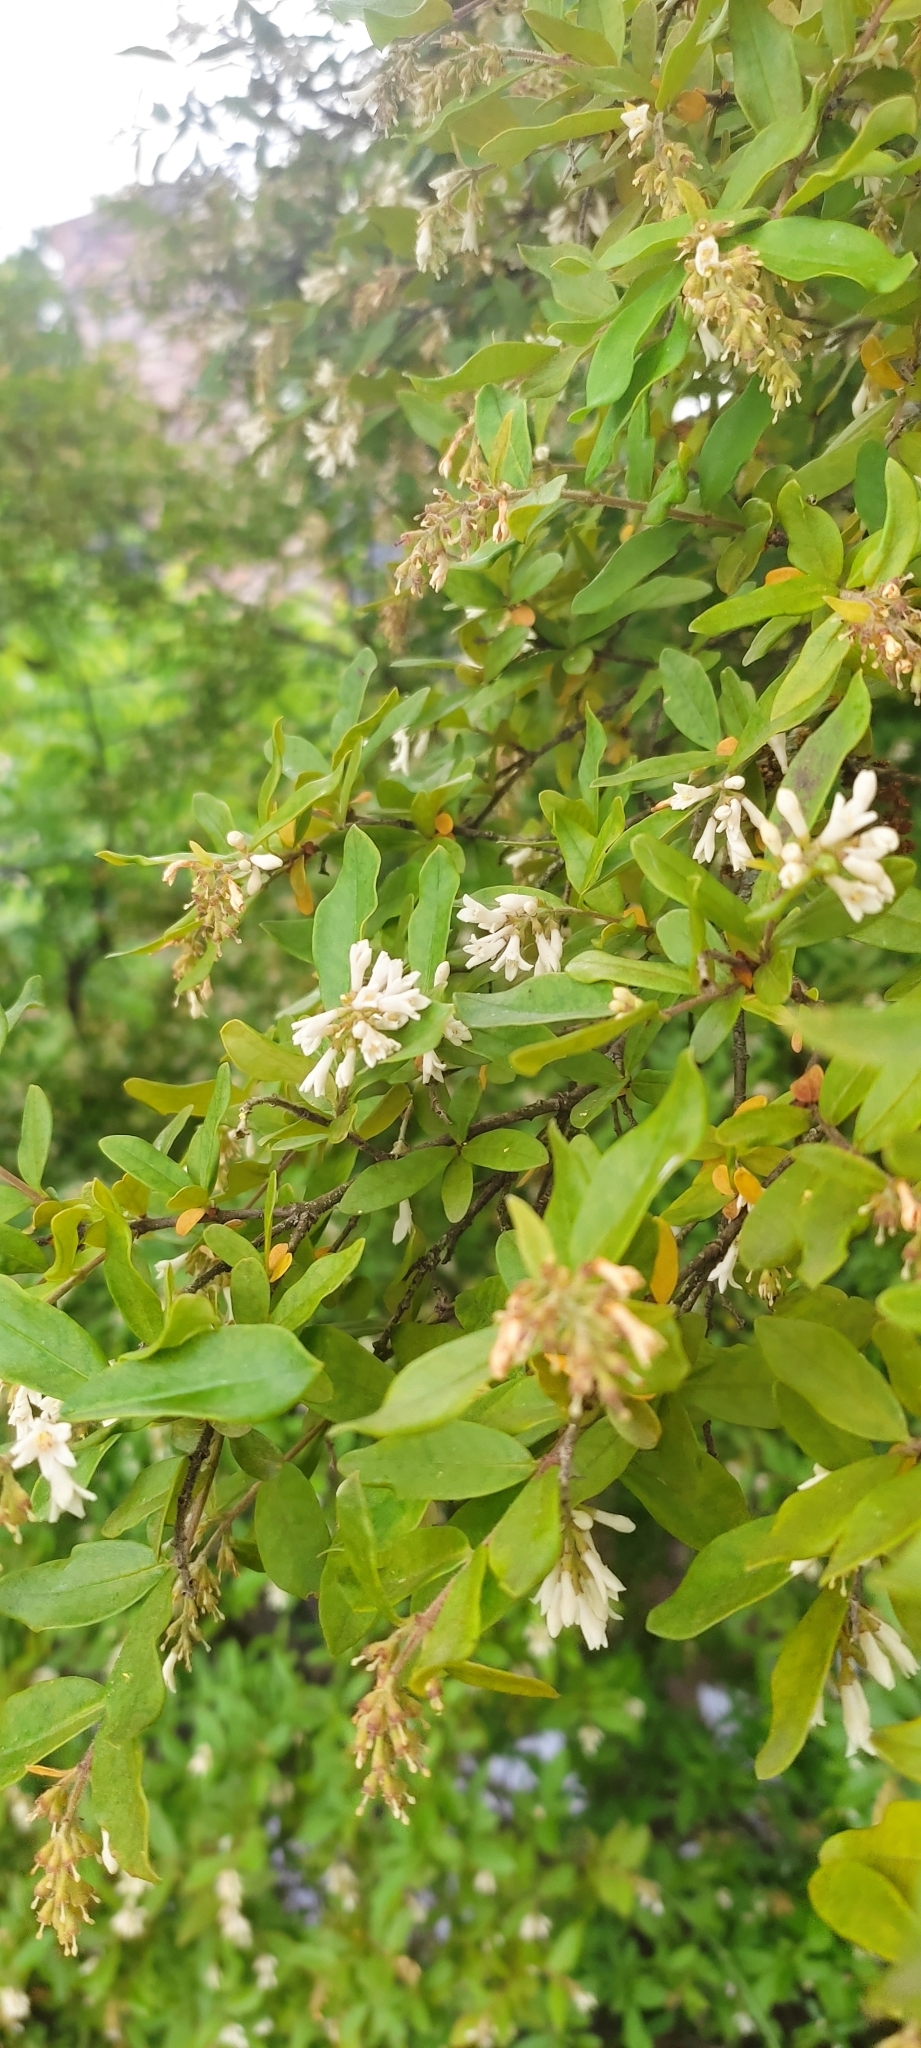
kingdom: Plantae
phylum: Tracheophyta
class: Magnoliopsida
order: Lamiales
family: Oleaceae
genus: Ligustrum
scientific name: Ligustrum obtusifolium
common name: Border privet
